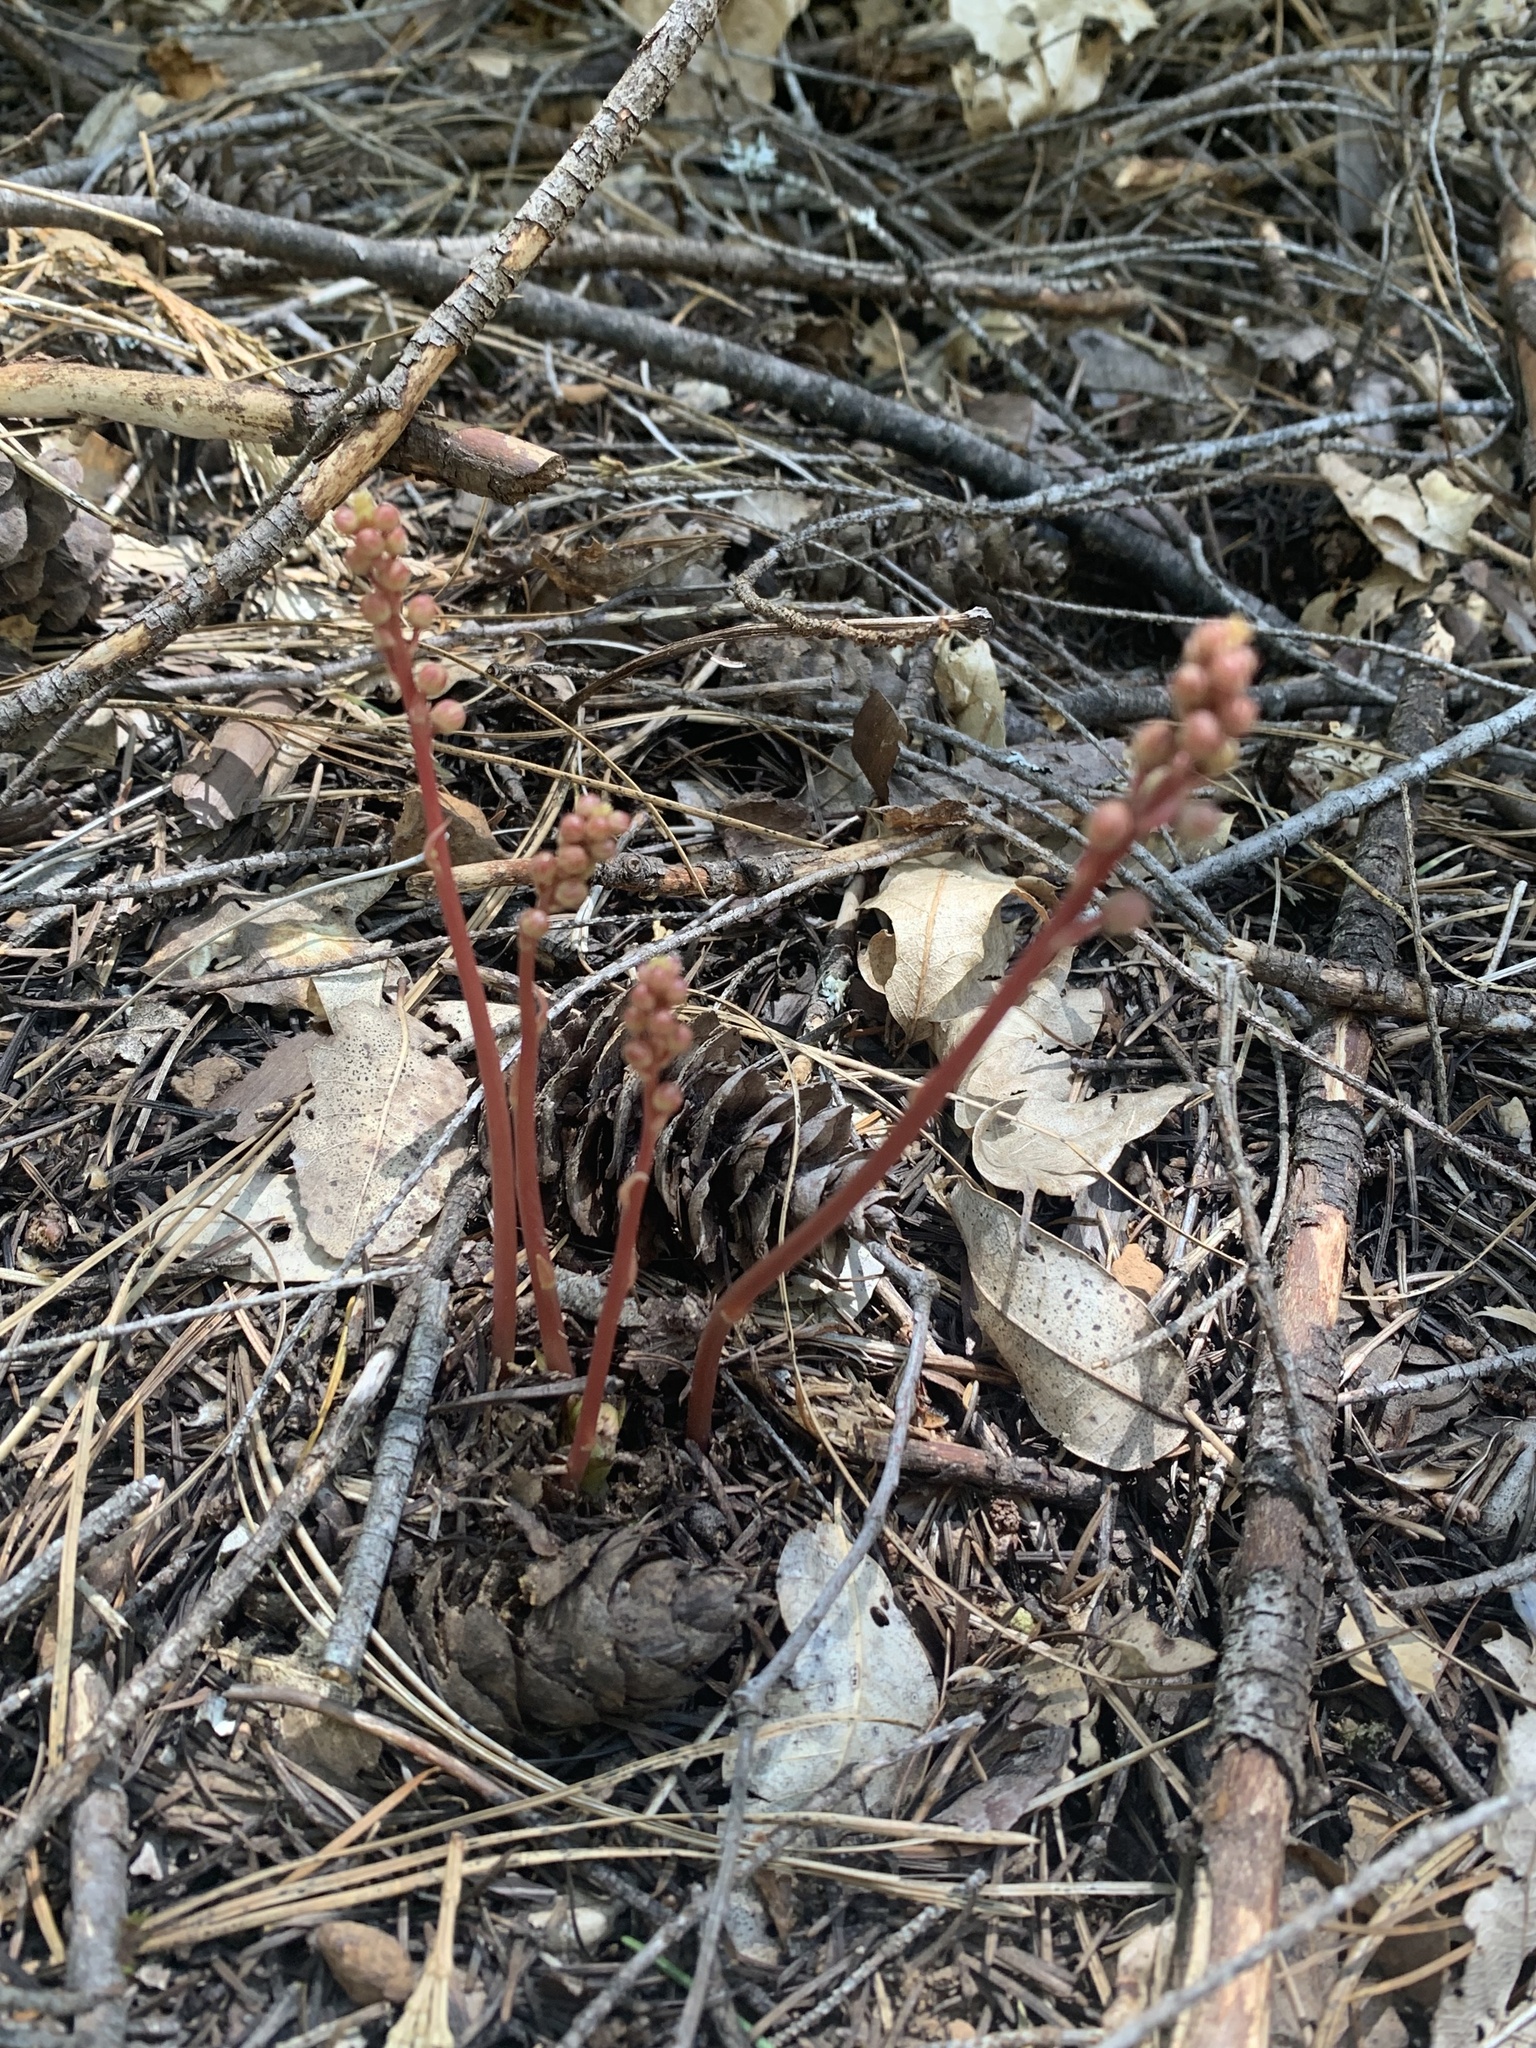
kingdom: Plantae
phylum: Tracheophyta
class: Magnoliopsida
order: Ericales
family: Ericaceae
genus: Pyrola
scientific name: Pyrola aphylla
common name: Leafless wintergreen
